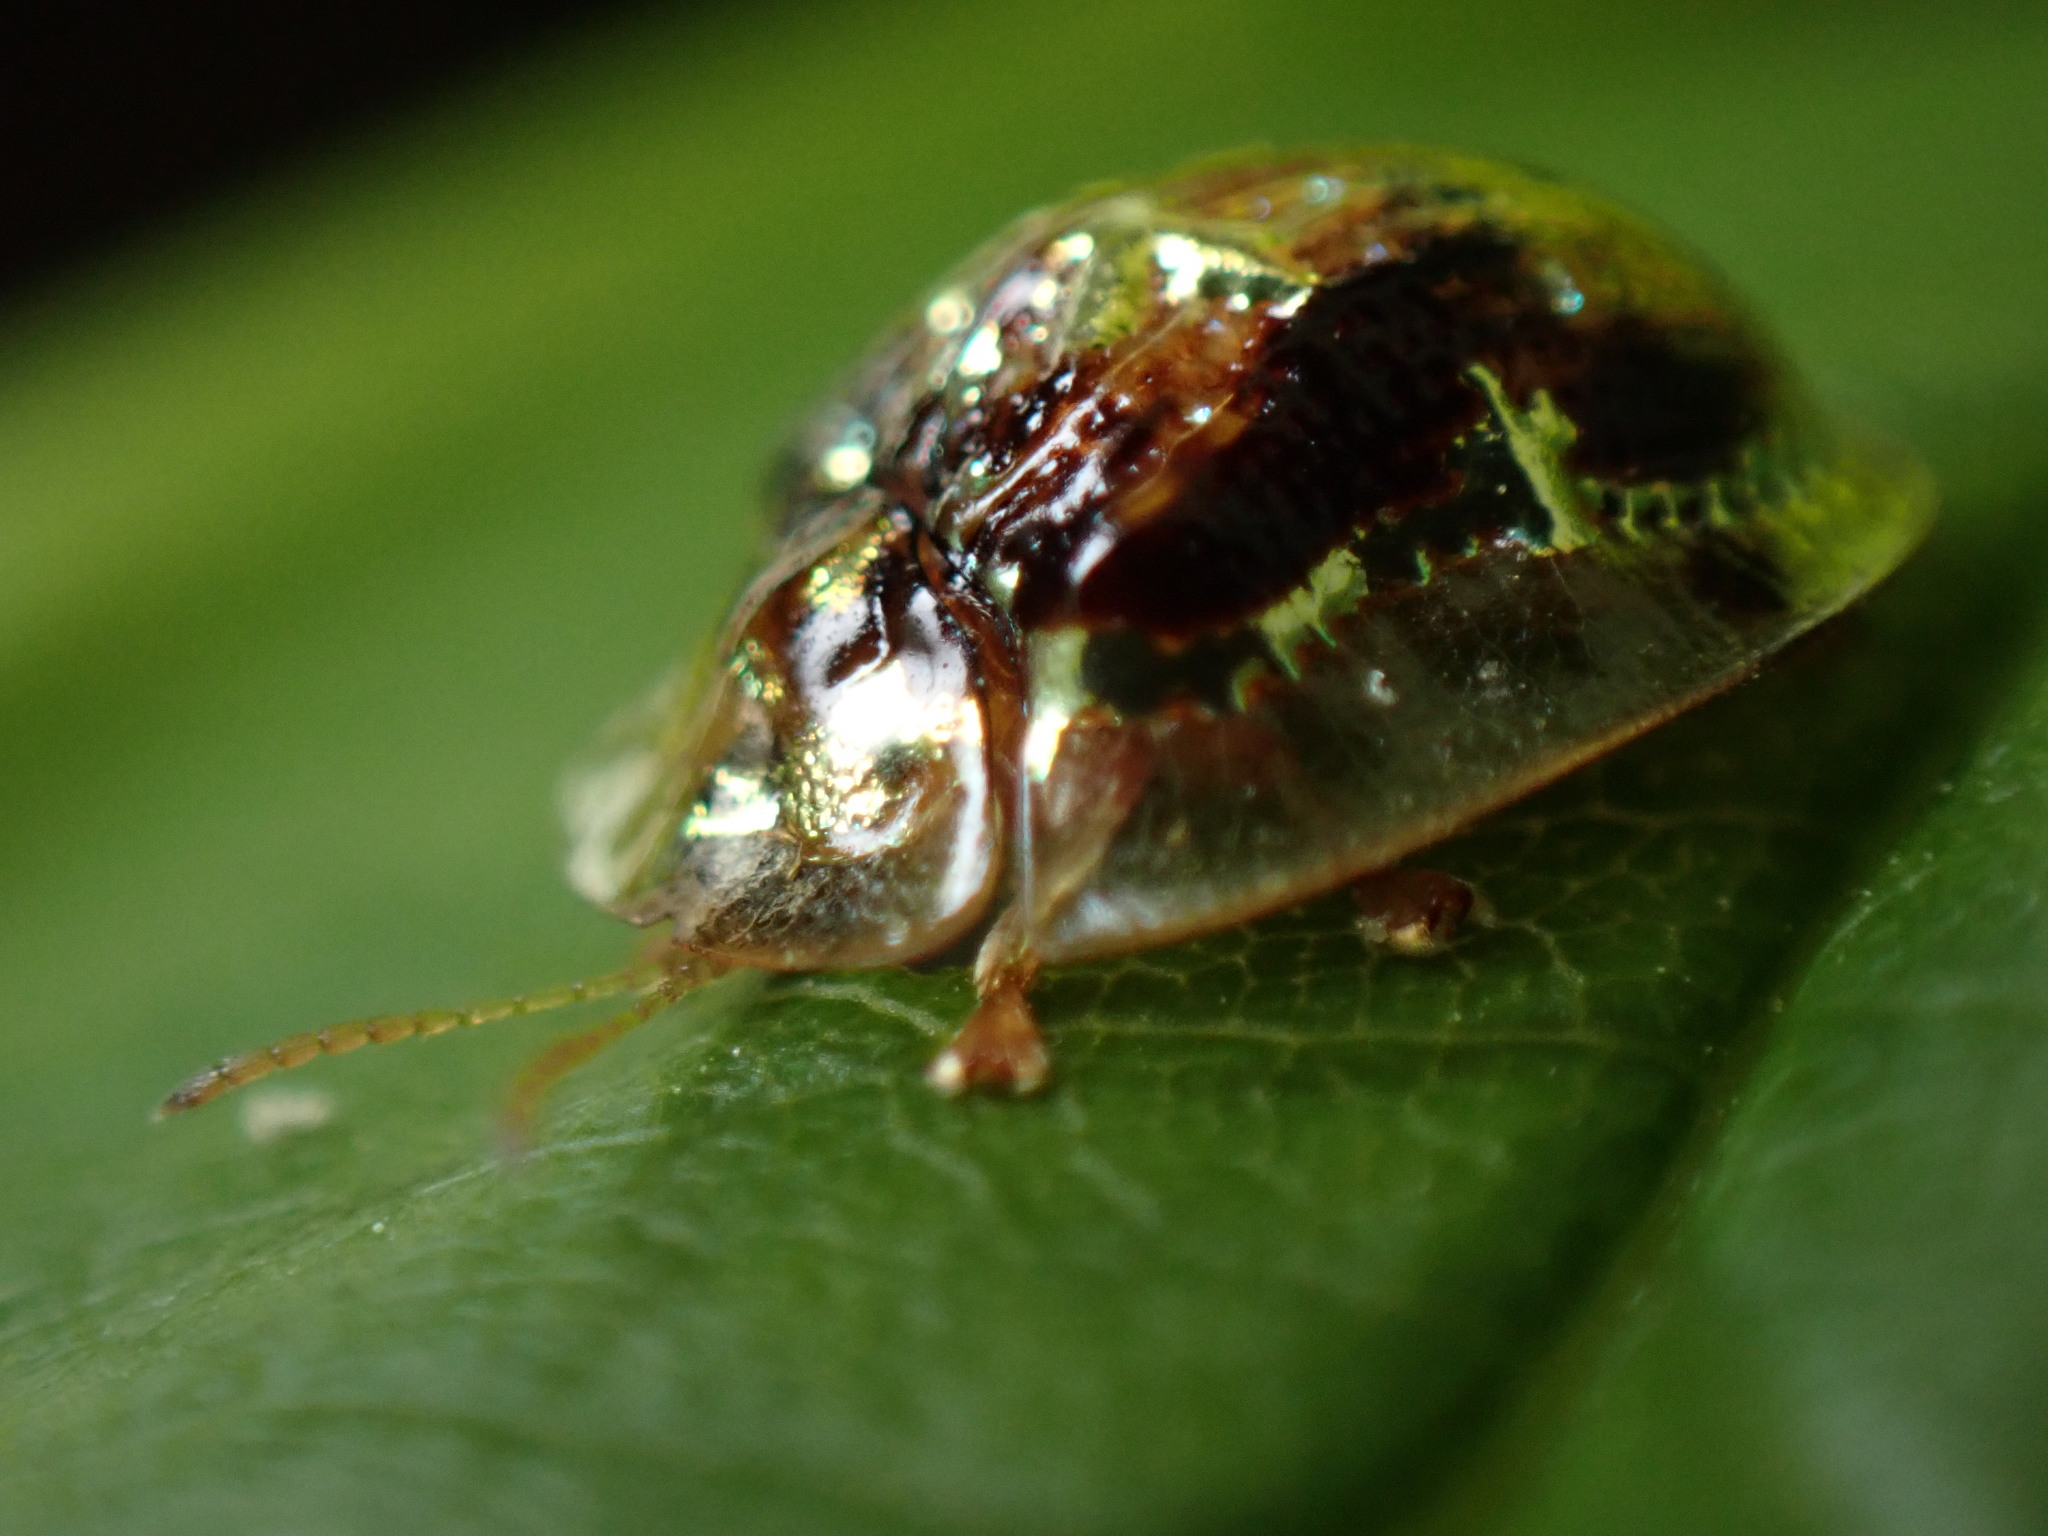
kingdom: Animalia
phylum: Arthropoda
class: Insecta
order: Coleoptera
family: Chrysomelidae
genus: Cassida
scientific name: Cassida versicolor
